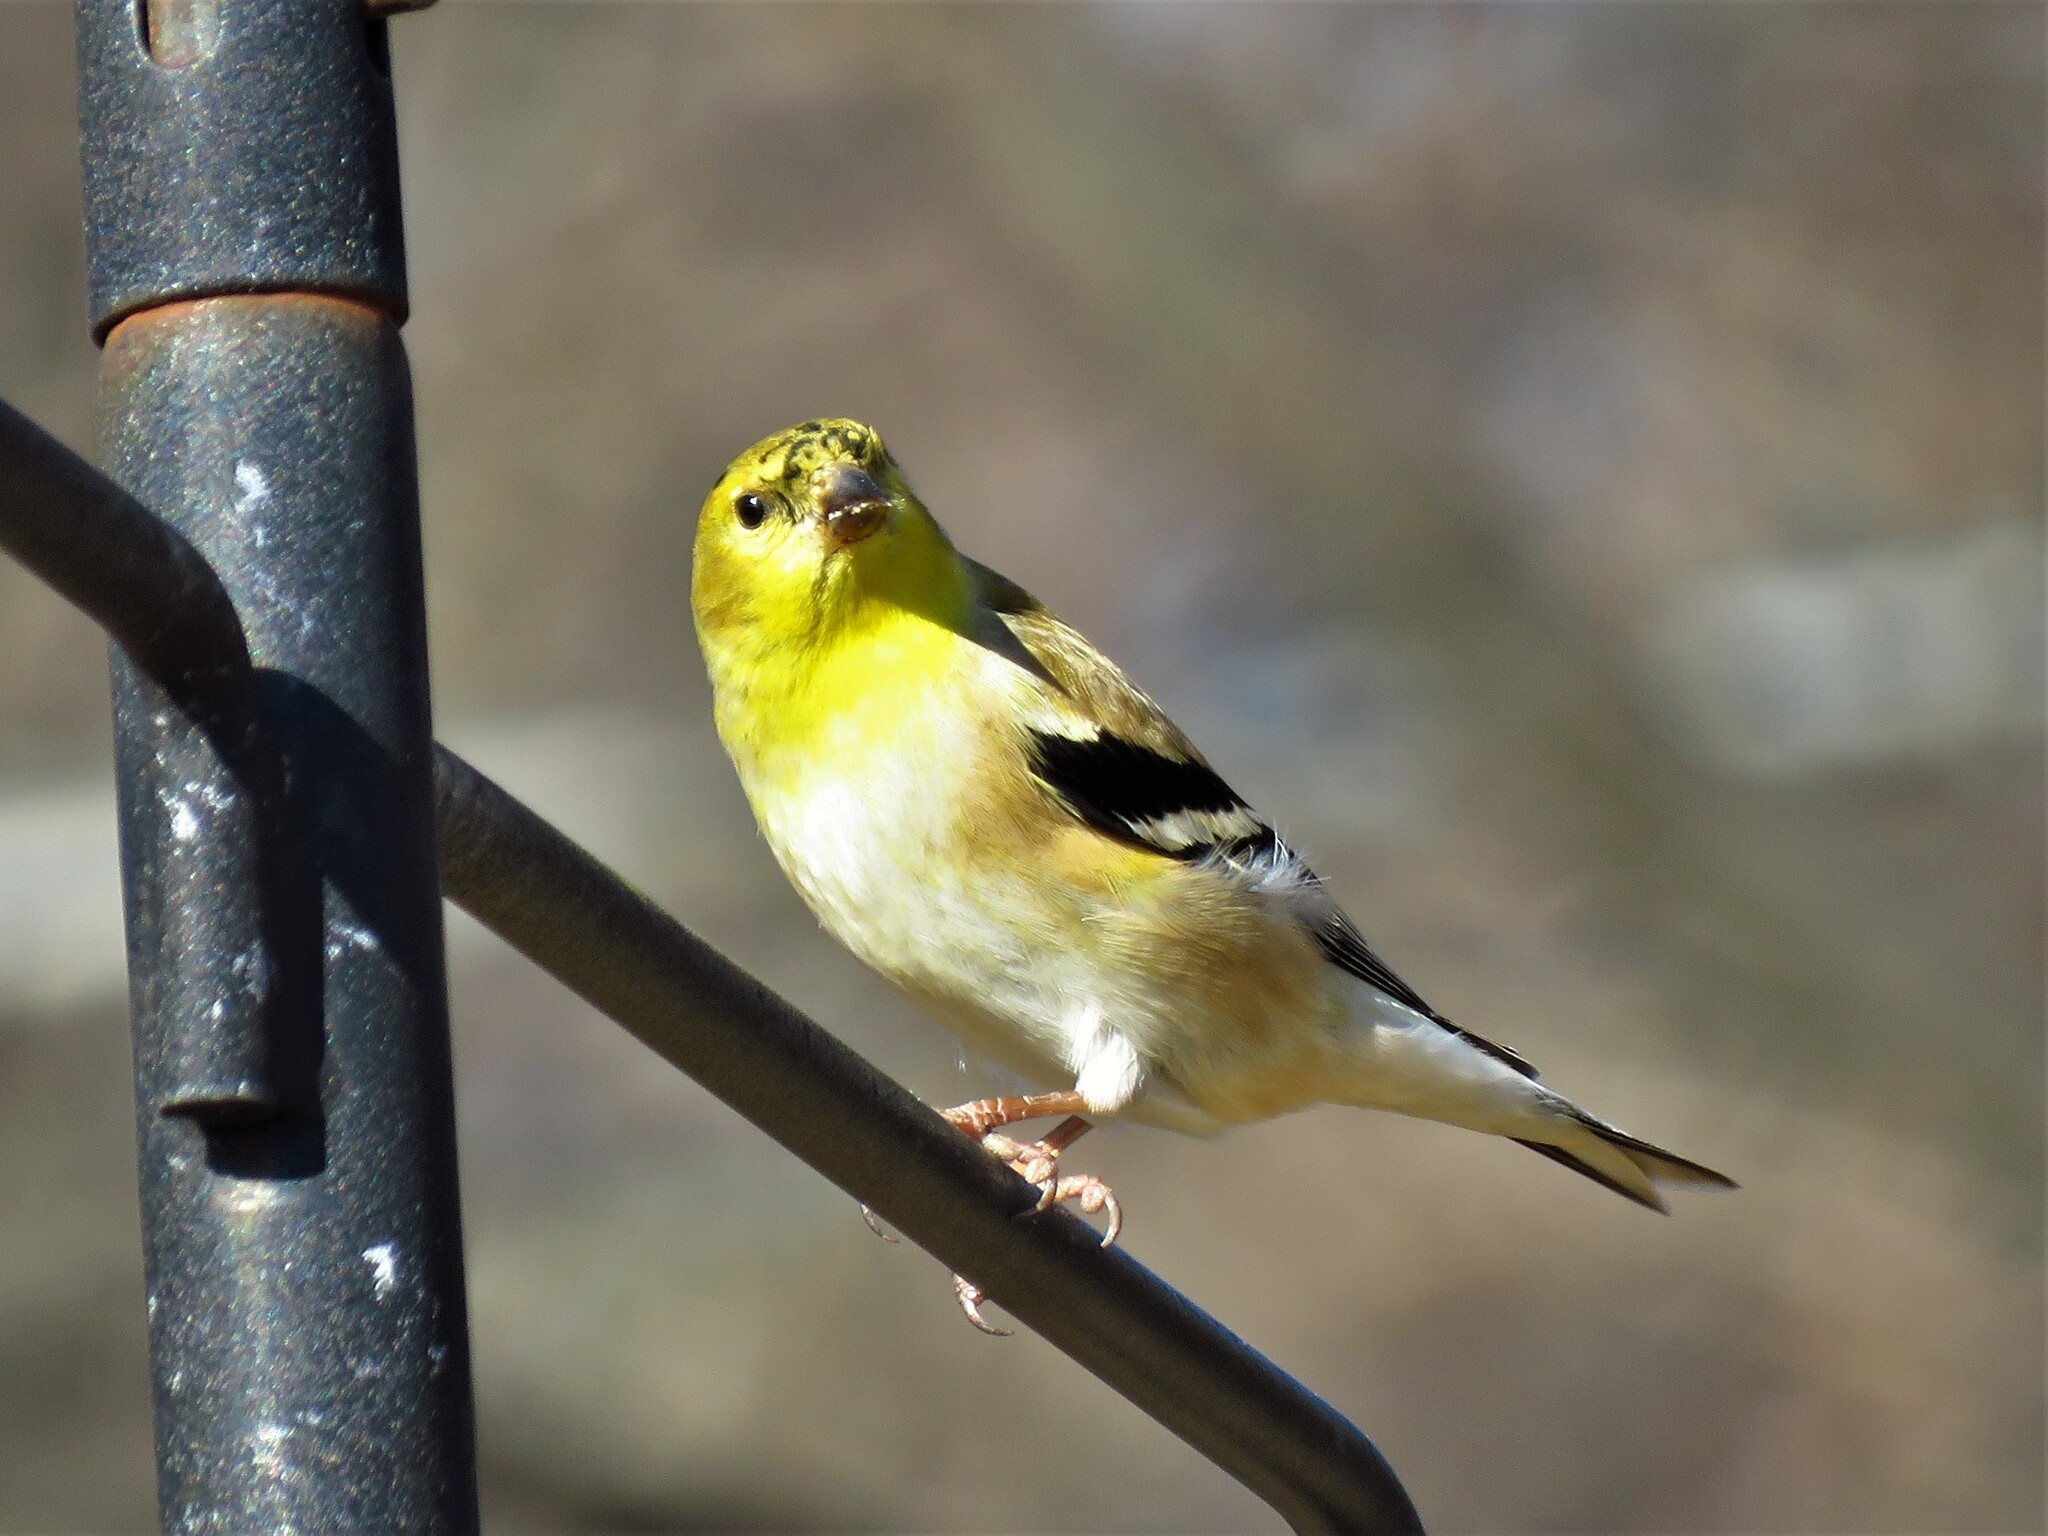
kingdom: Animalia
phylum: Chordata
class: Aves
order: Passeriformes
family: Fringillidae
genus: Spinus
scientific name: Spinus tristis
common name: American goldfinch
